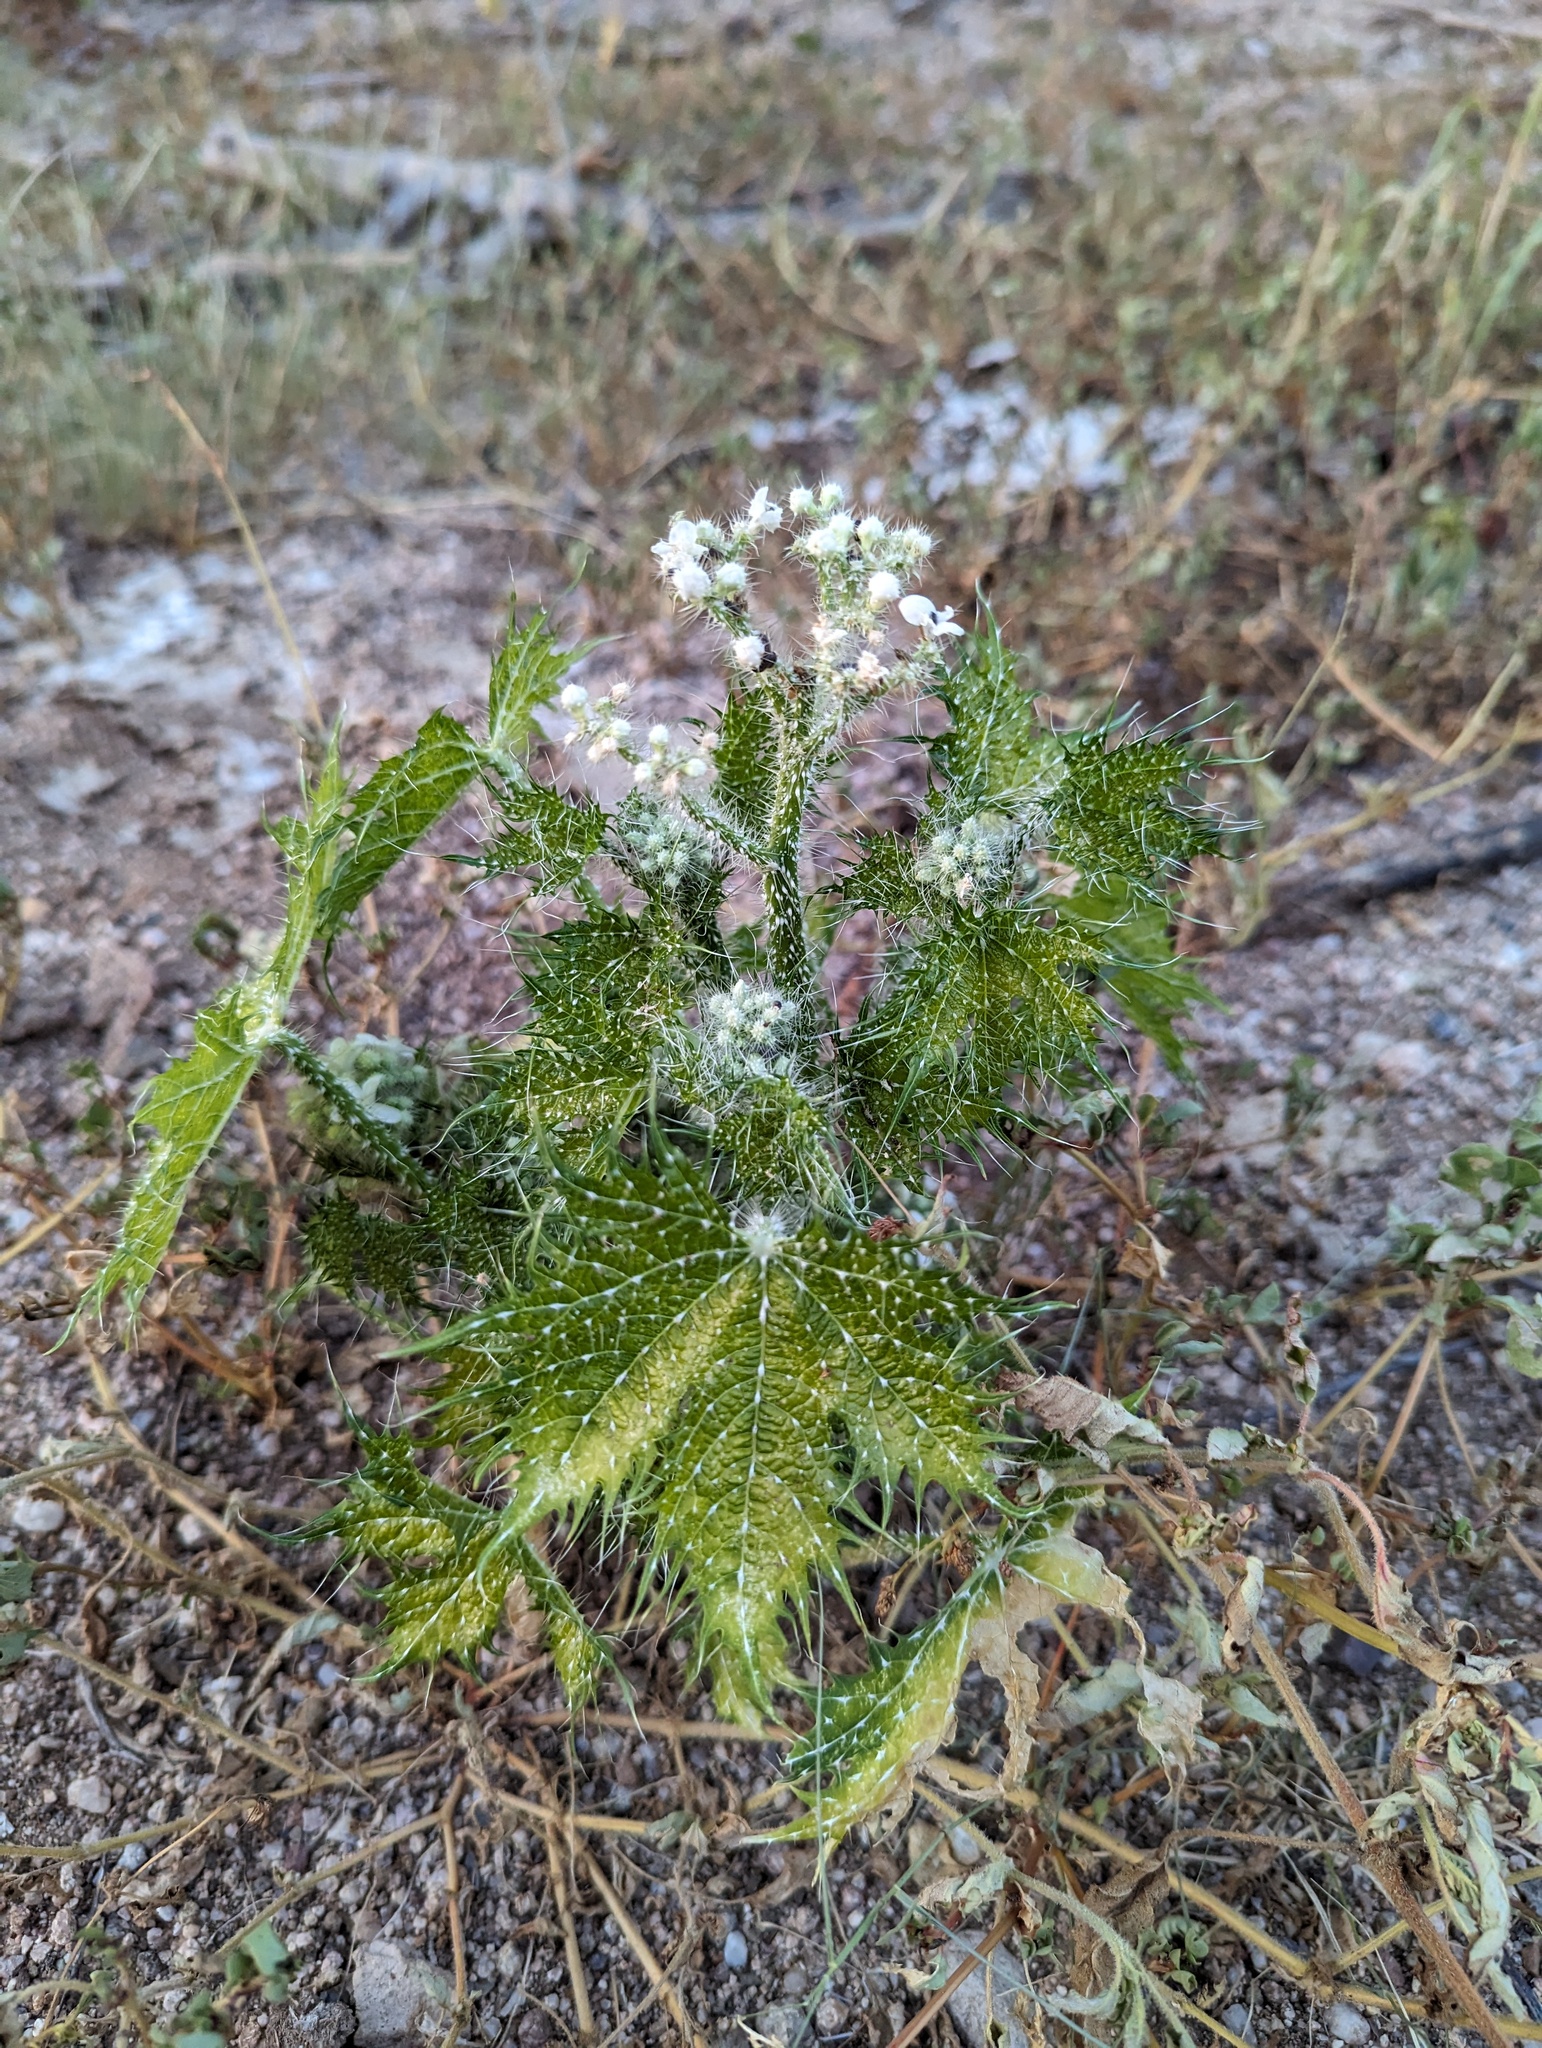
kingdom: Plantae
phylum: Tracheophyta
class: Magnoliopsida
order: Malpighiales
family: Euphorbiaceae
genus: Cnidoscolus
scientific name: Cnidoscolus maculatus
